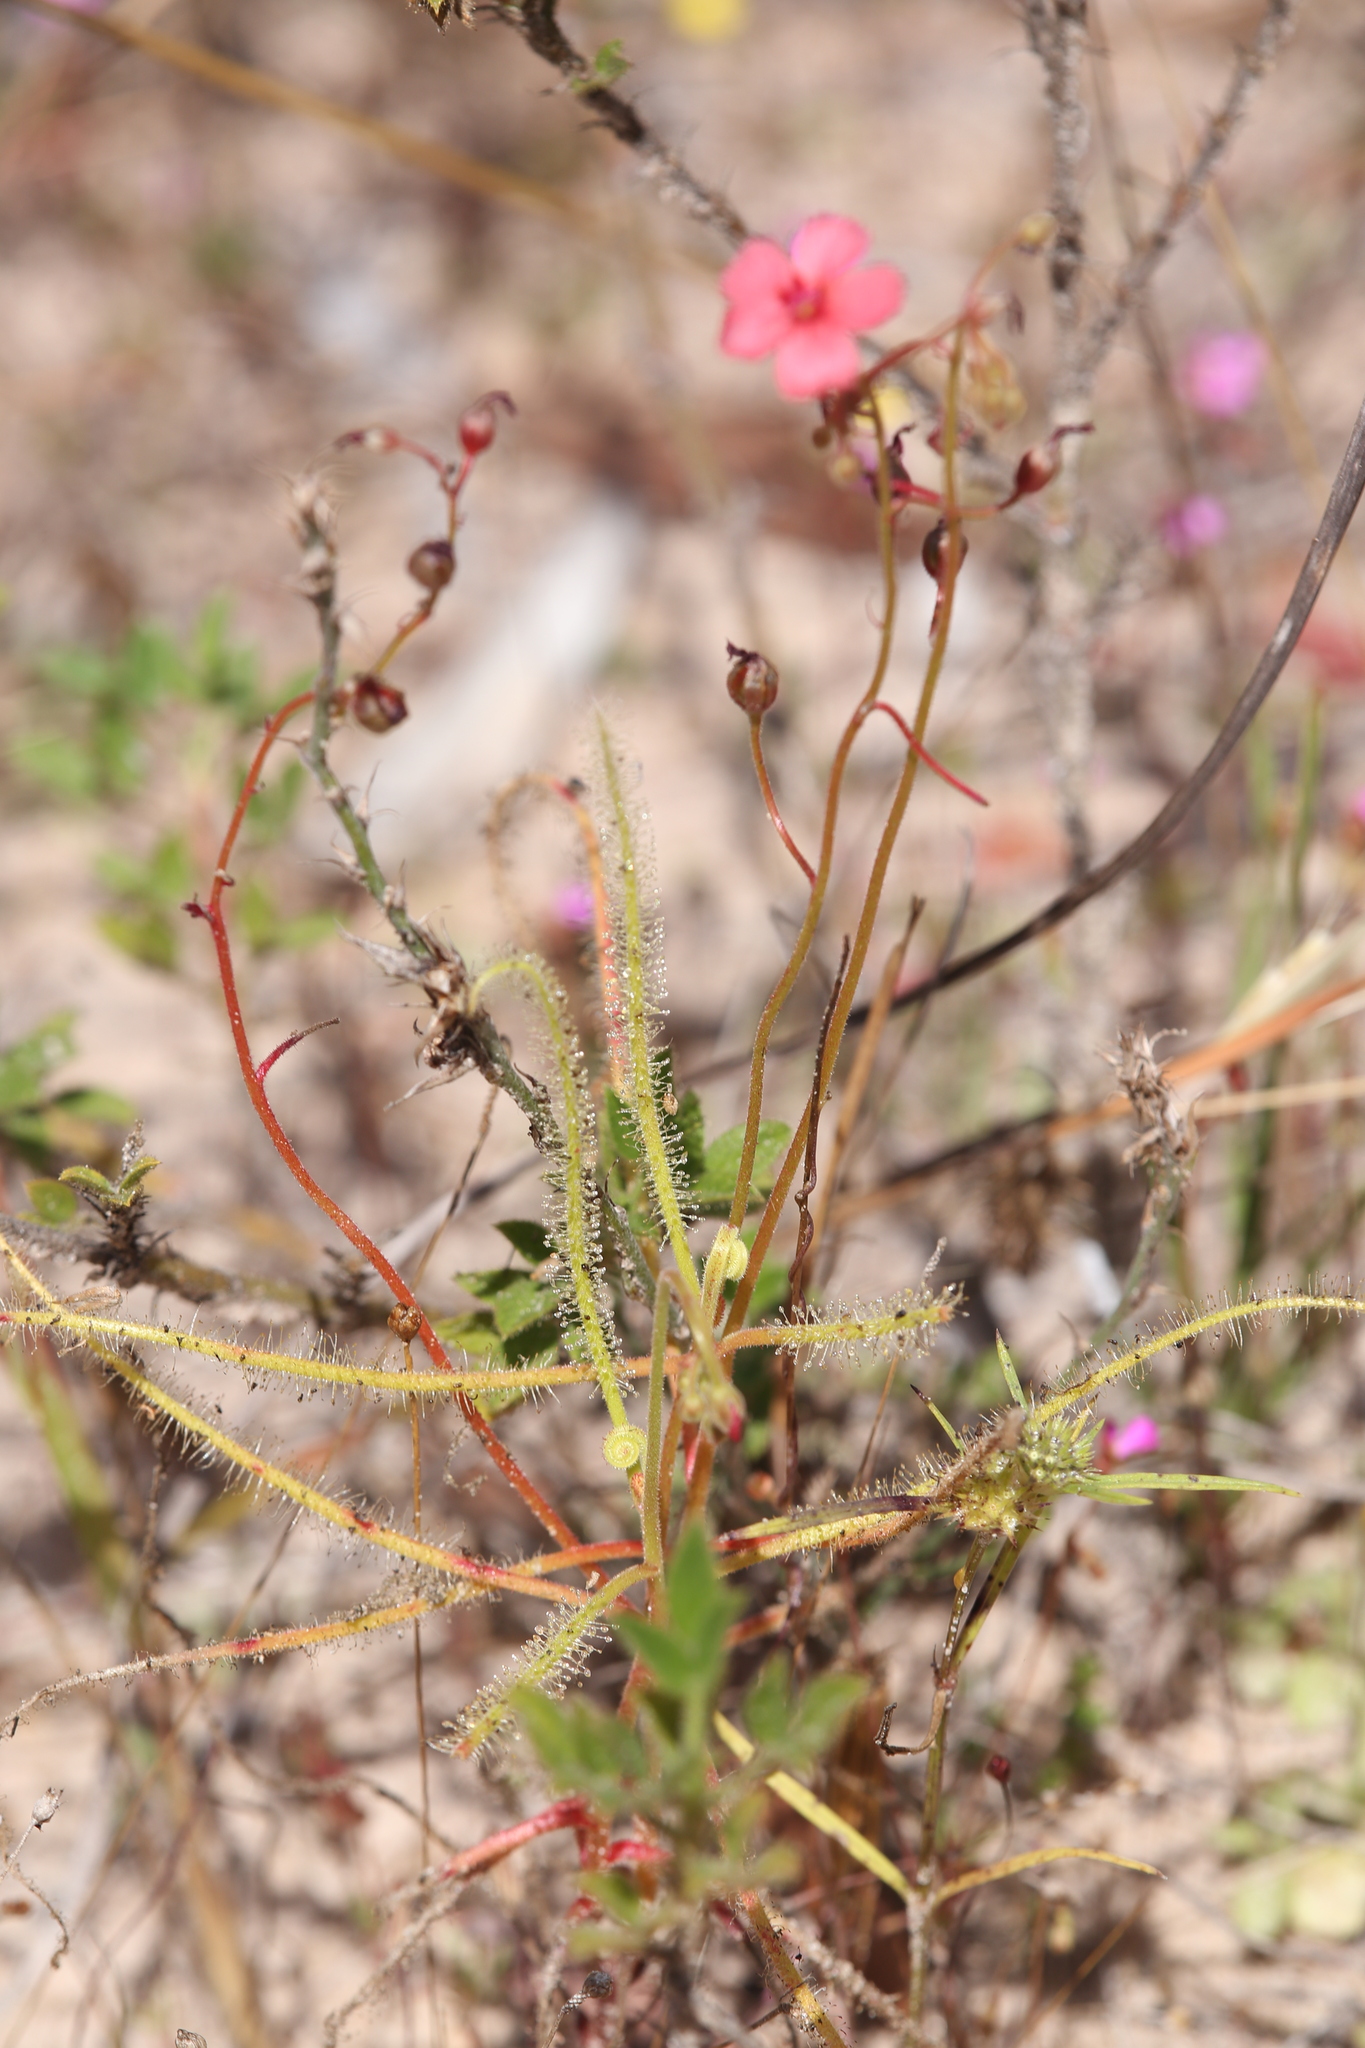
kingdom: Plantae
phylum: Tracheophyta
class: Magnoliopsida
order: Caryophyllales
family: Droseraceae
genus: Drosera
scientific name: Drosera fragrans
